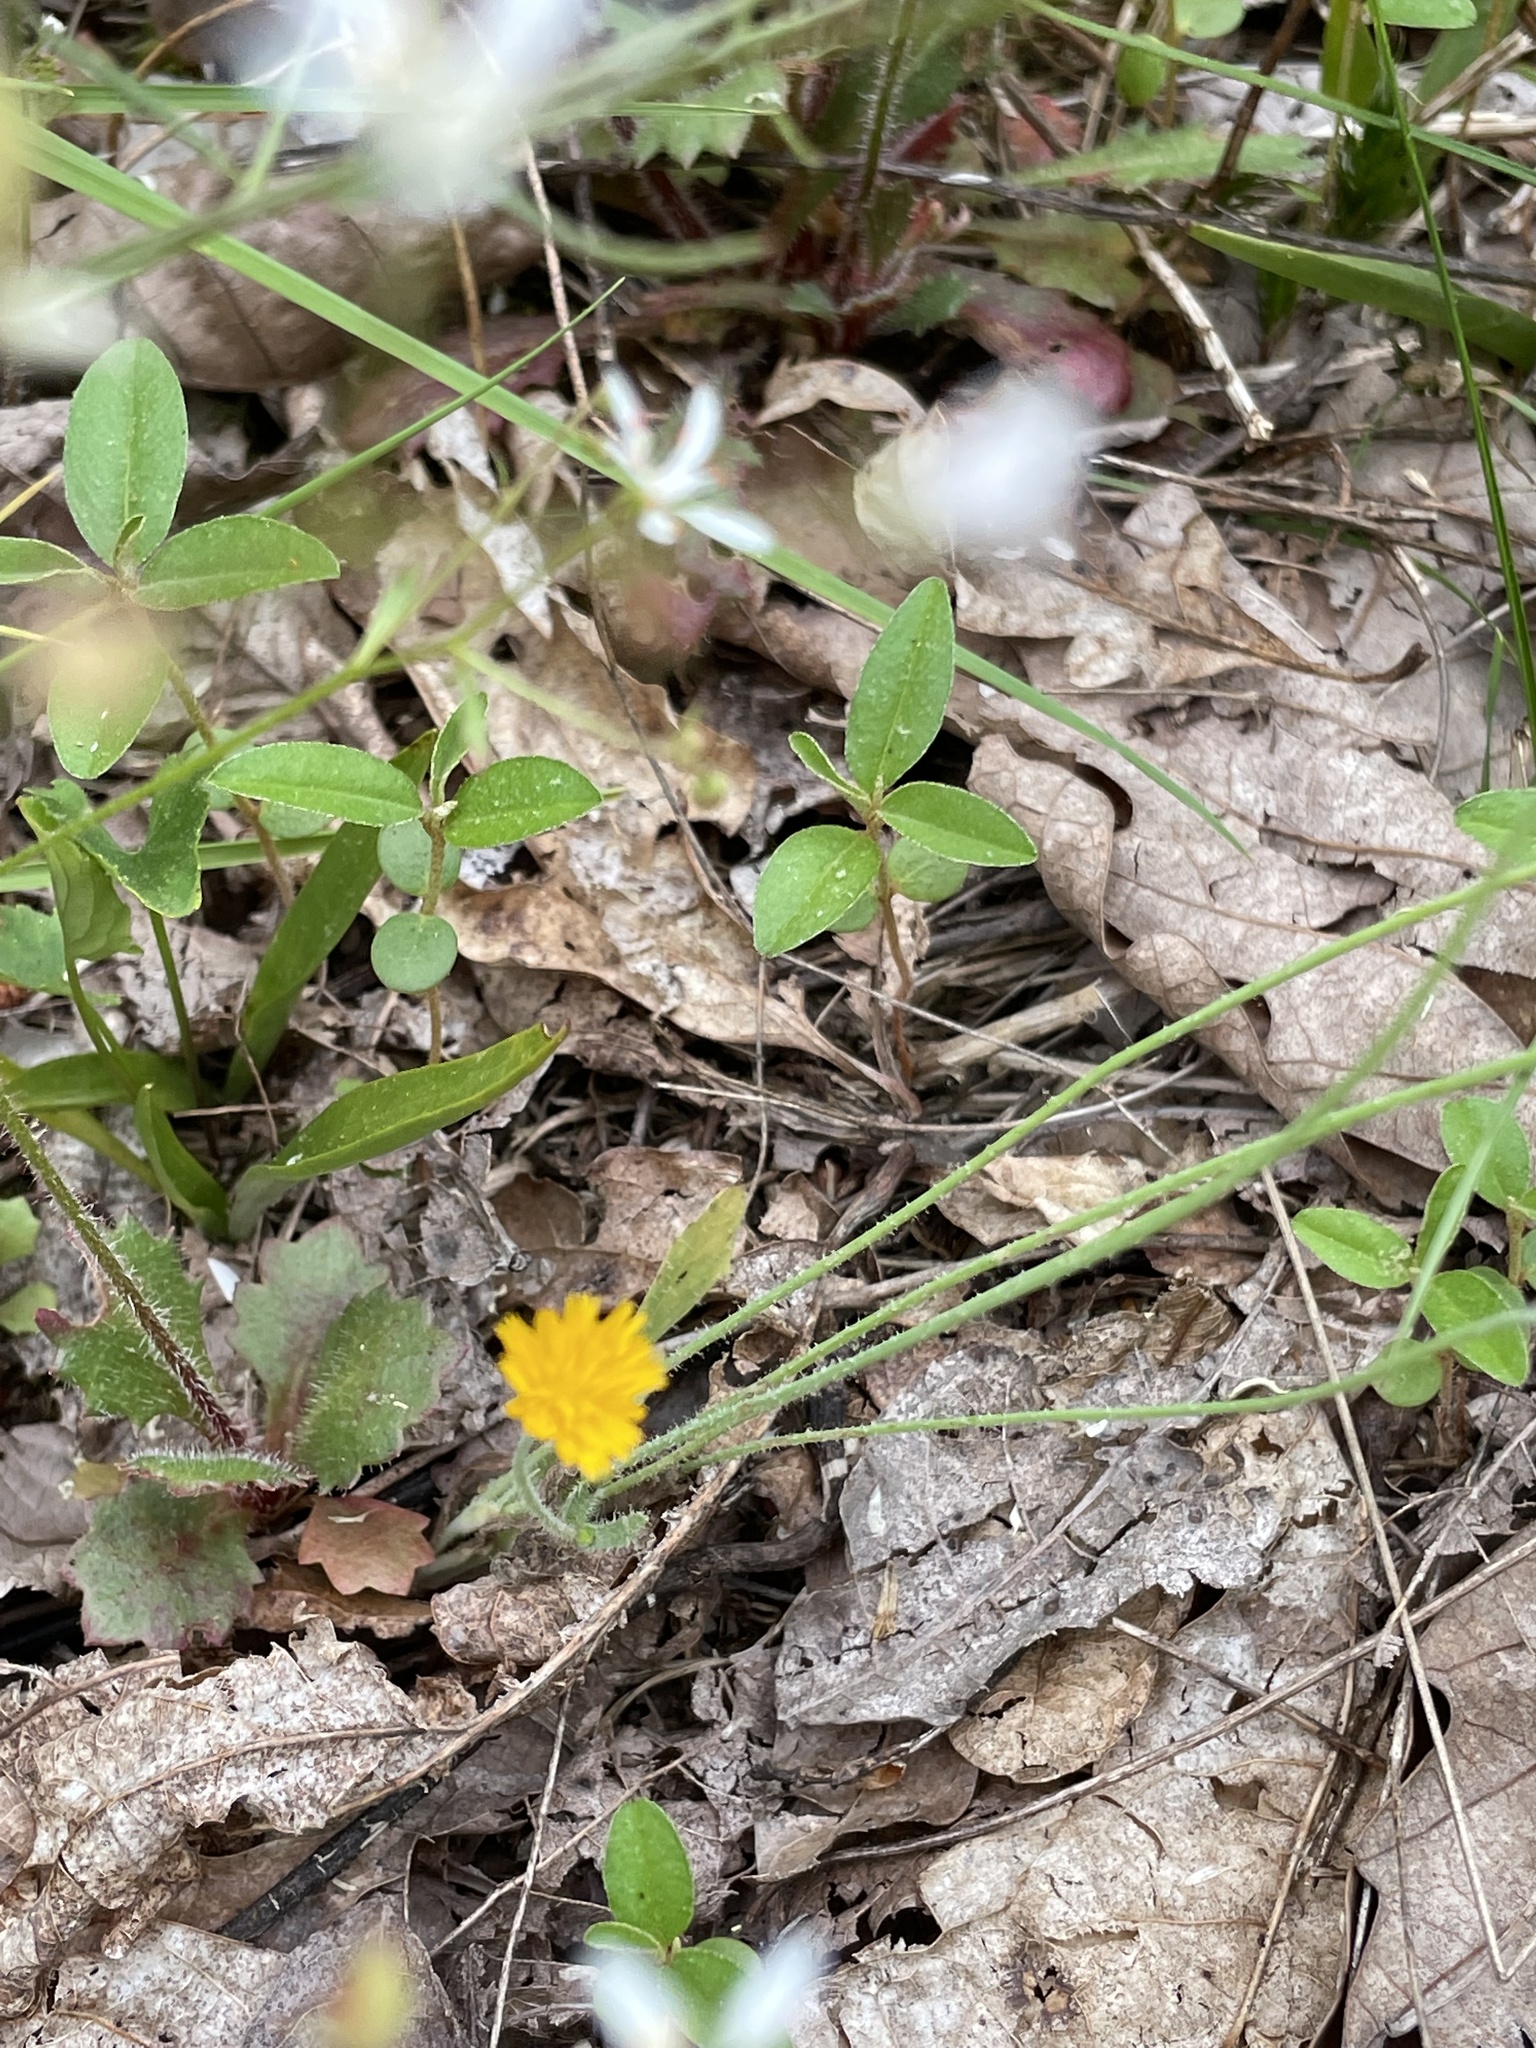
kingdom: Plantae
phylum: Tracheophyta
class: Magnoliopsida
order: Asterales
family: Asteraceae
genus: Krigia
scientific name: Krigia virginica
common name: Virginia dwarf-dandelion
